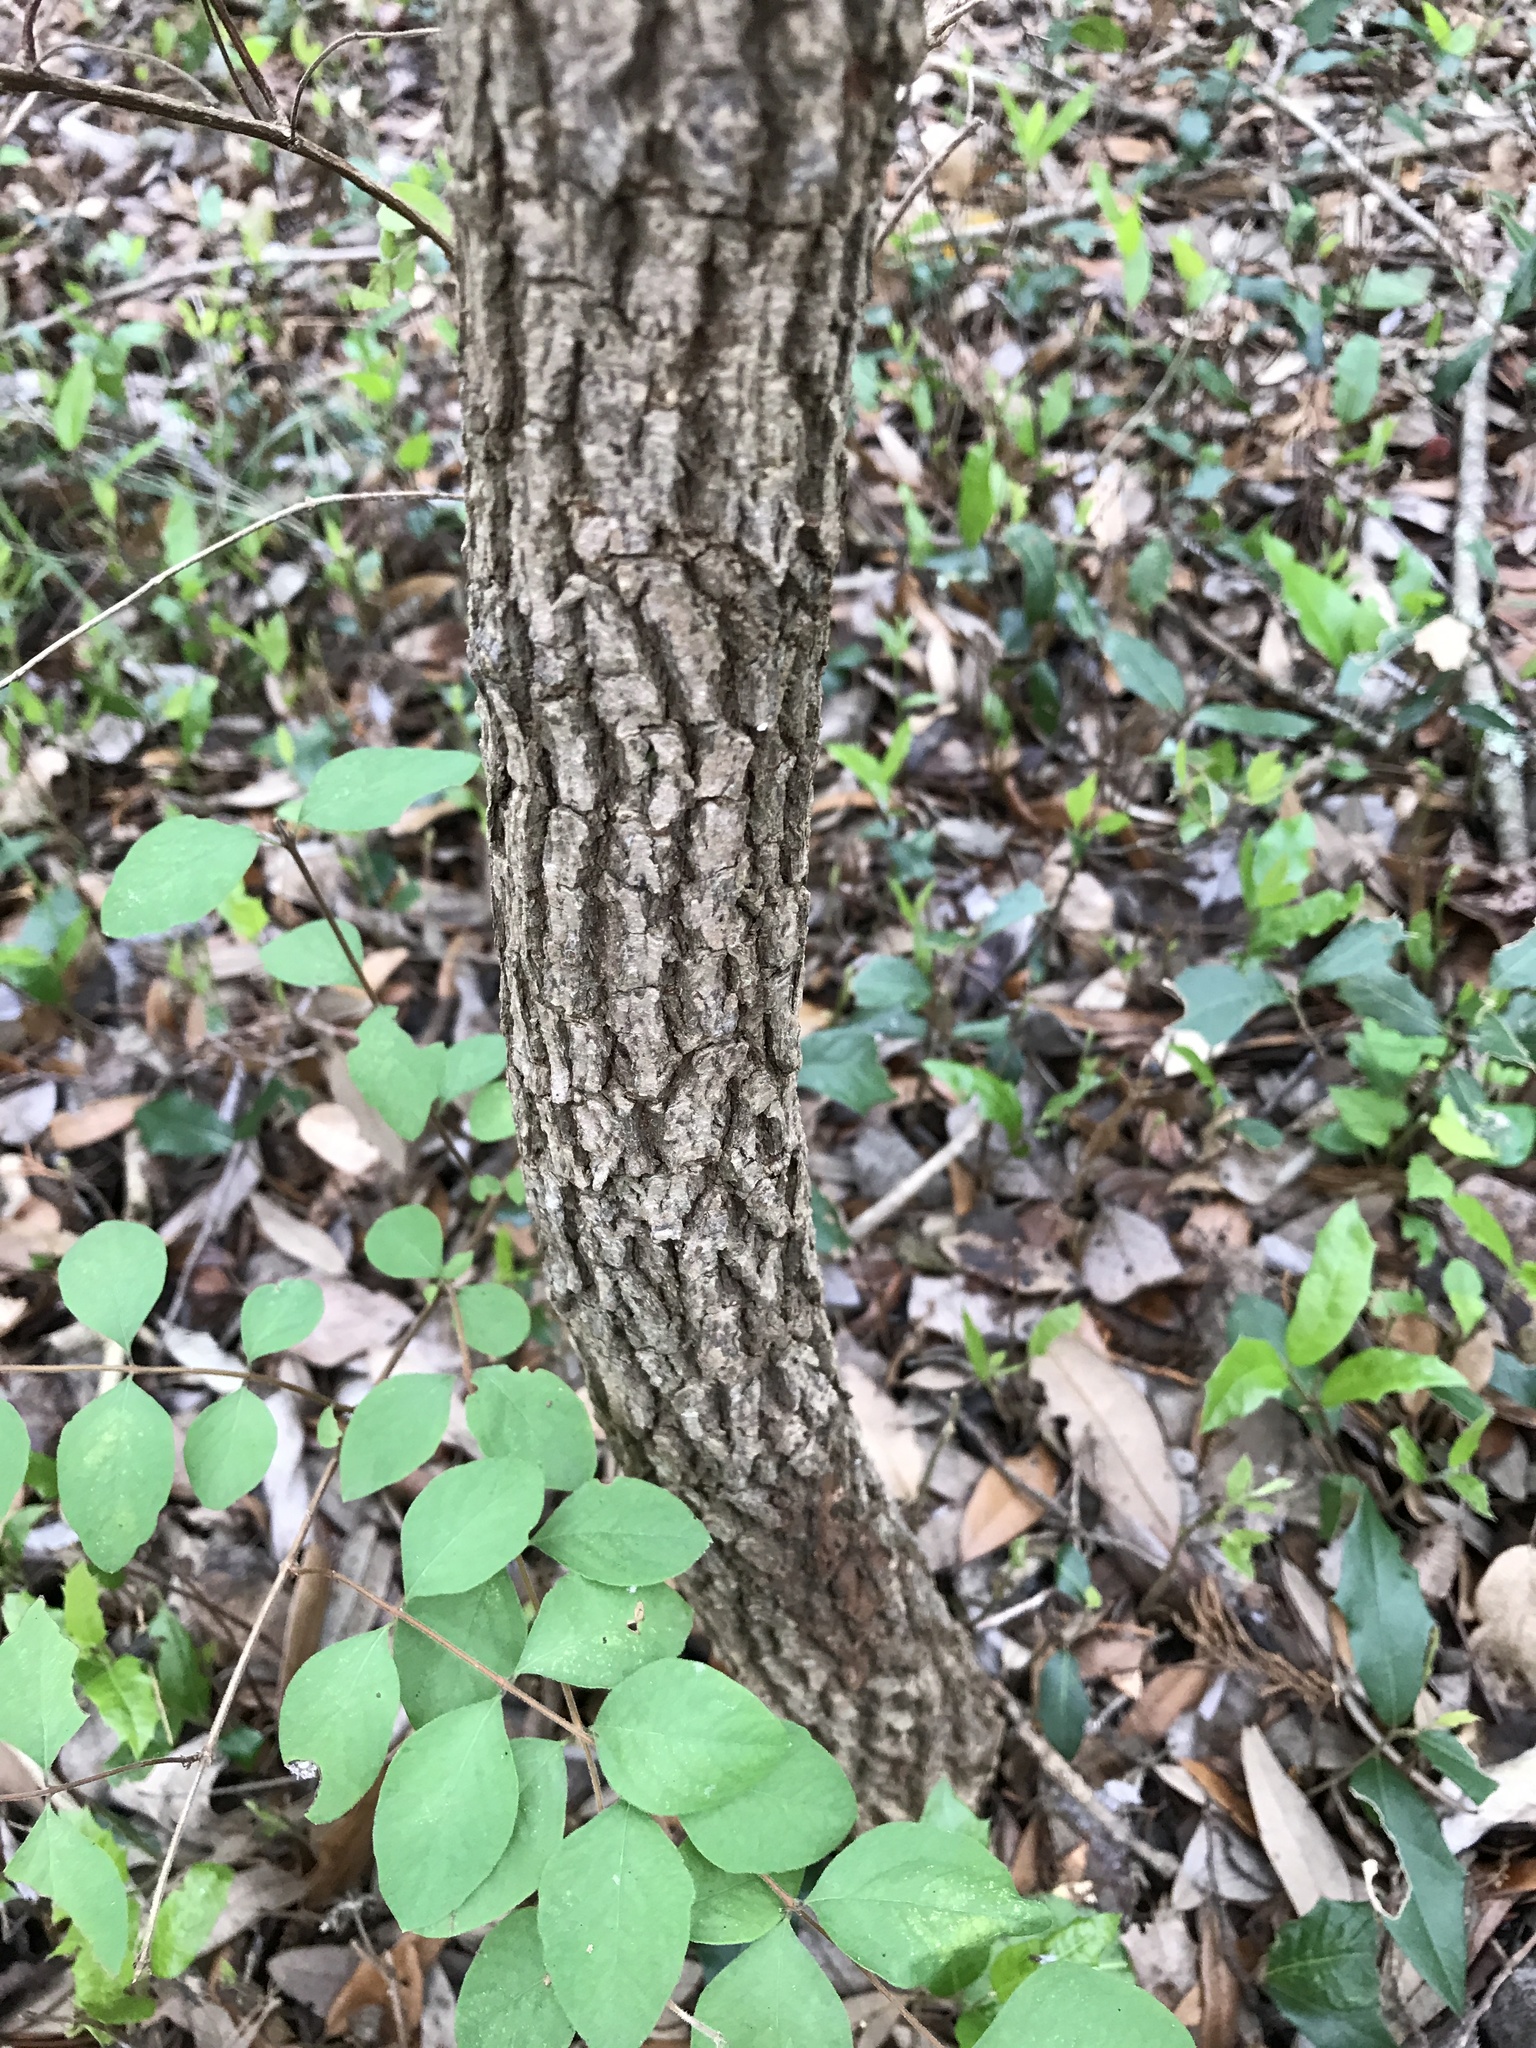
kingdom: Plantae
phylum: Tracheophyta
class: Magnoliopsida
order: Dipsacales
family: Viburnaceae
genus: Viburnum
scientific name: Viburnum rufidulum
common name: Blue haw
